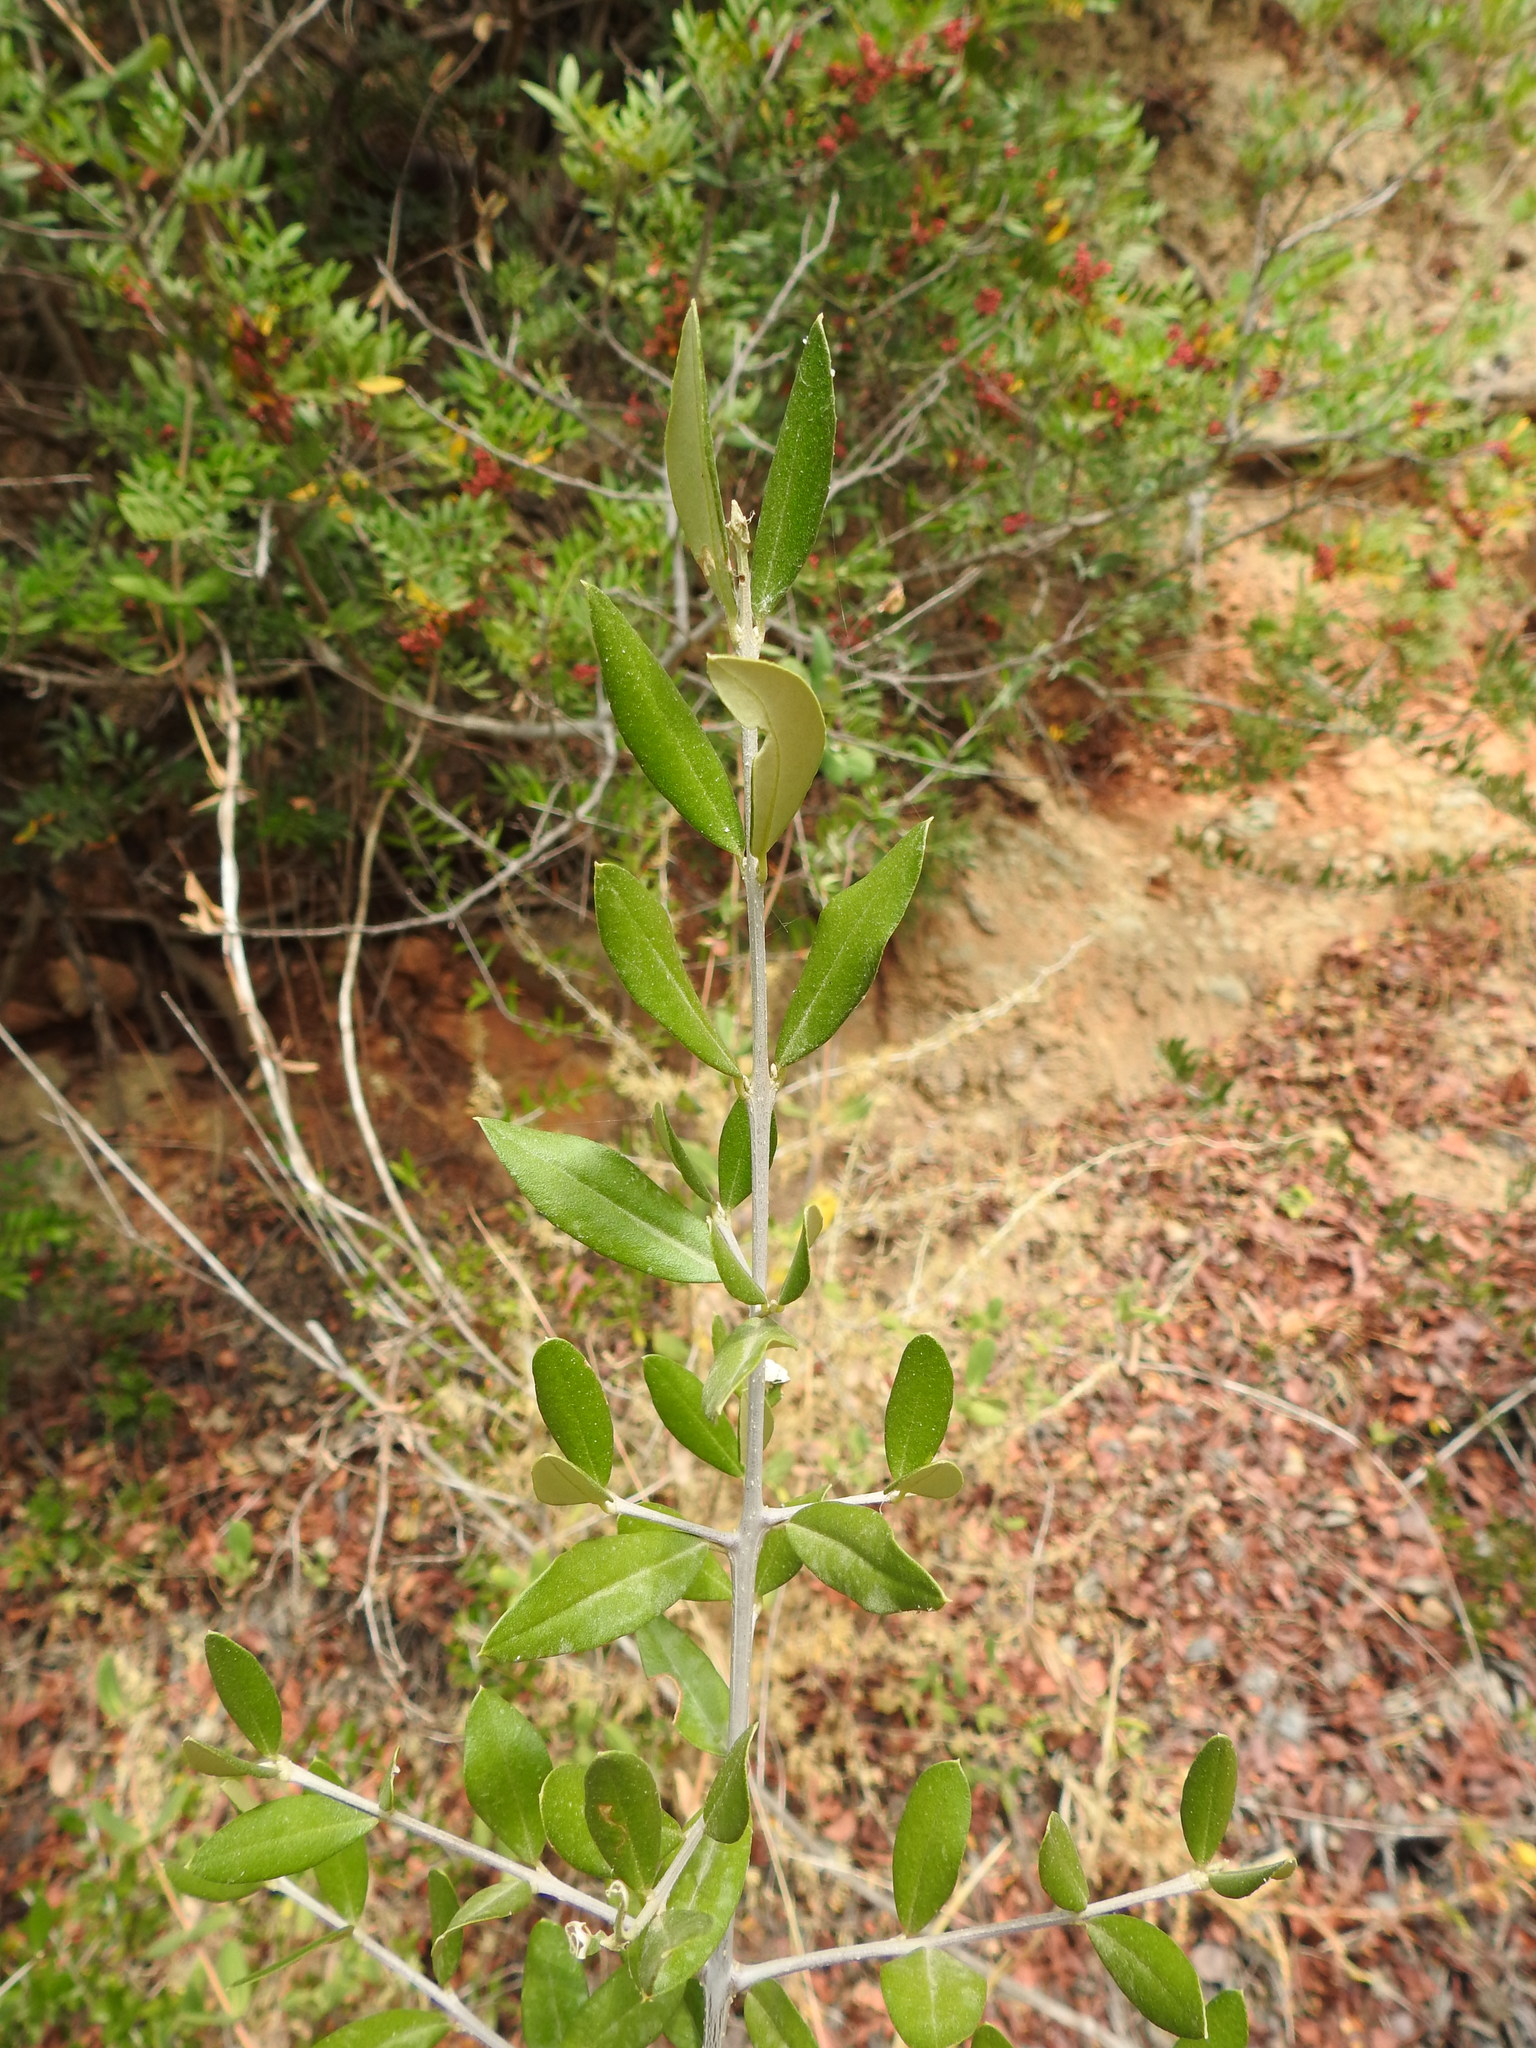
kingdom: Plantae
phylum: Tracheophyta
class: Magnoliopsida
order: Lamiales
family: Oleaceae
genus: Olea
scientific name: Olea europaea
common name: Olive
